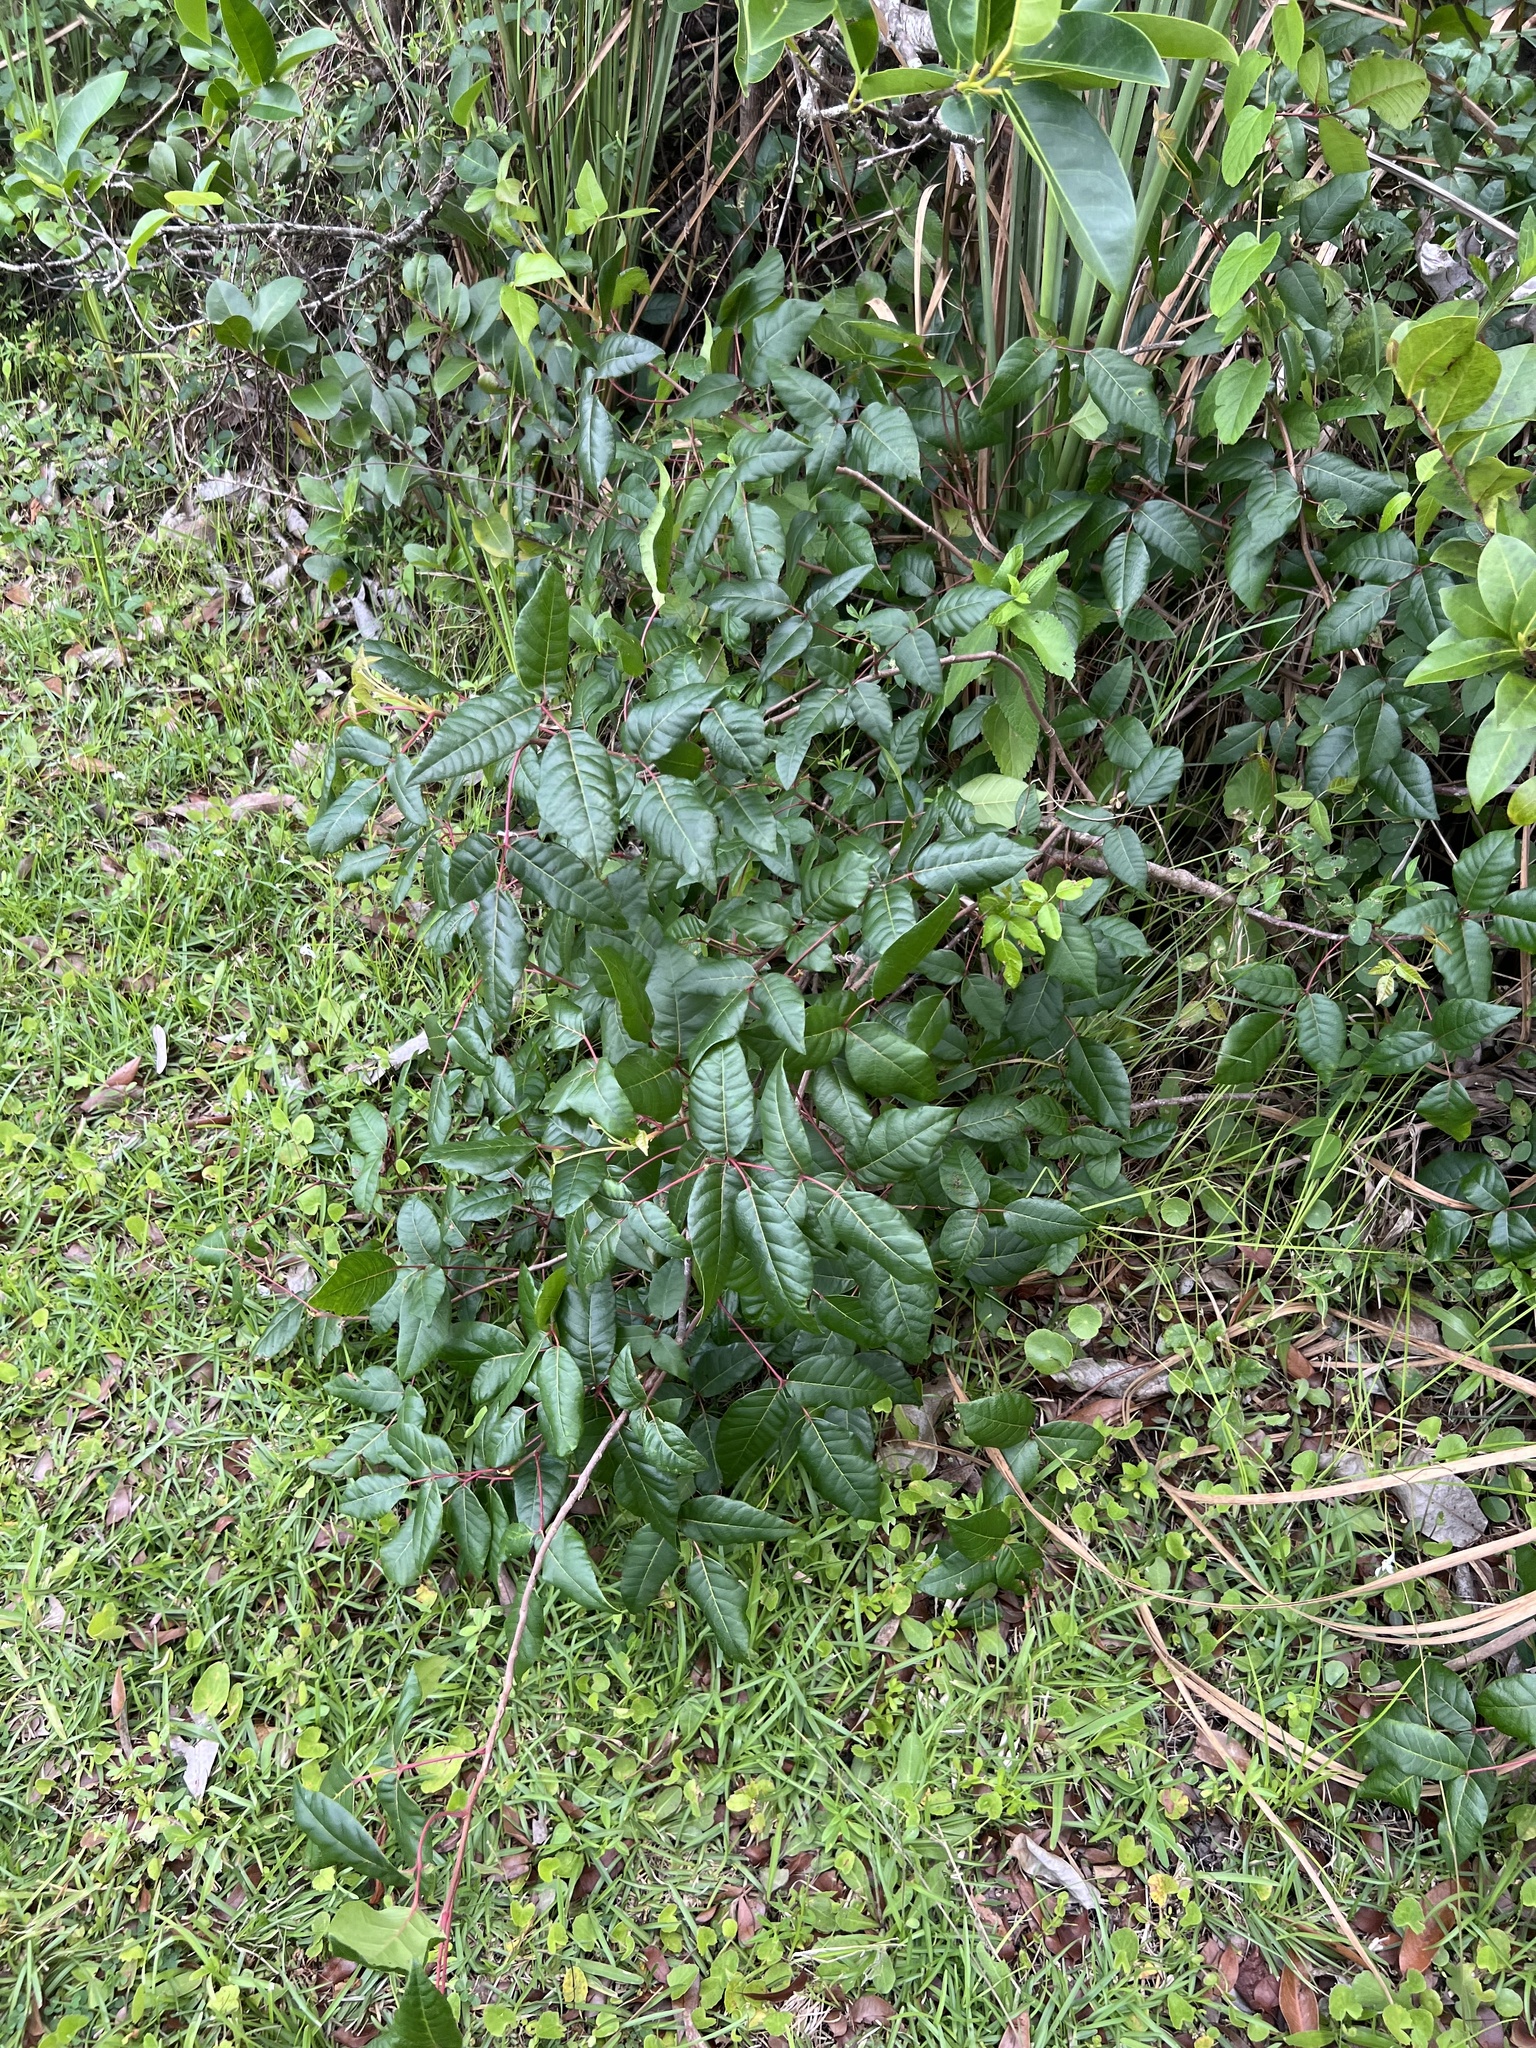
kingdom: Plantae
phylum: Tracheophyta
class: Magnoliopsida
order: Sapindales
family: Anacardiaceae
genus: Toxicodendron
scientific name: Toxicodendron radicans
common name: Poison ivy
